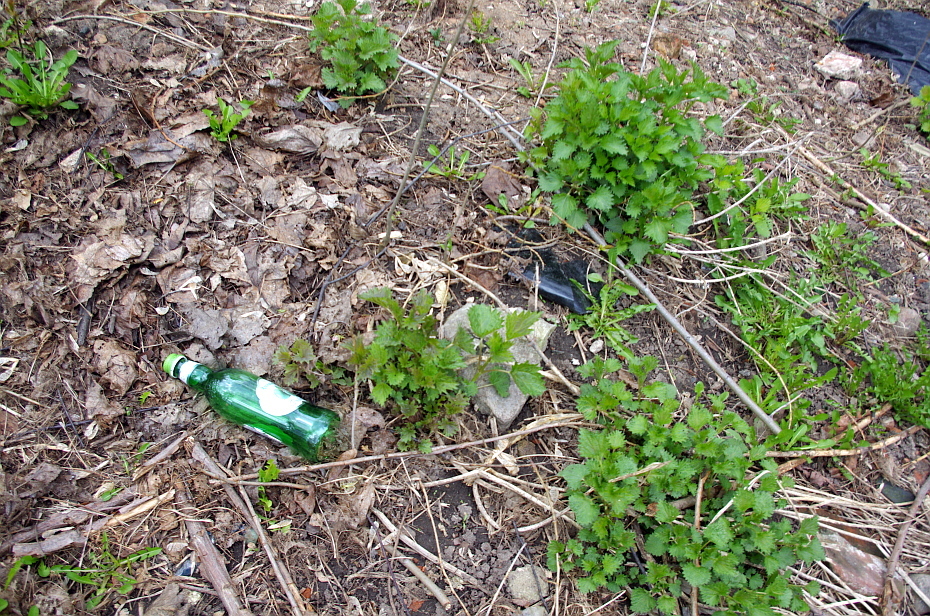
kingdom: Plantae
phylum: Tracheophyta
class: Magnoliopsida
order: Rosales
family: Urticaceae
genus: Urtica
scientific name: Urtica dioica
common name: Common nettle
